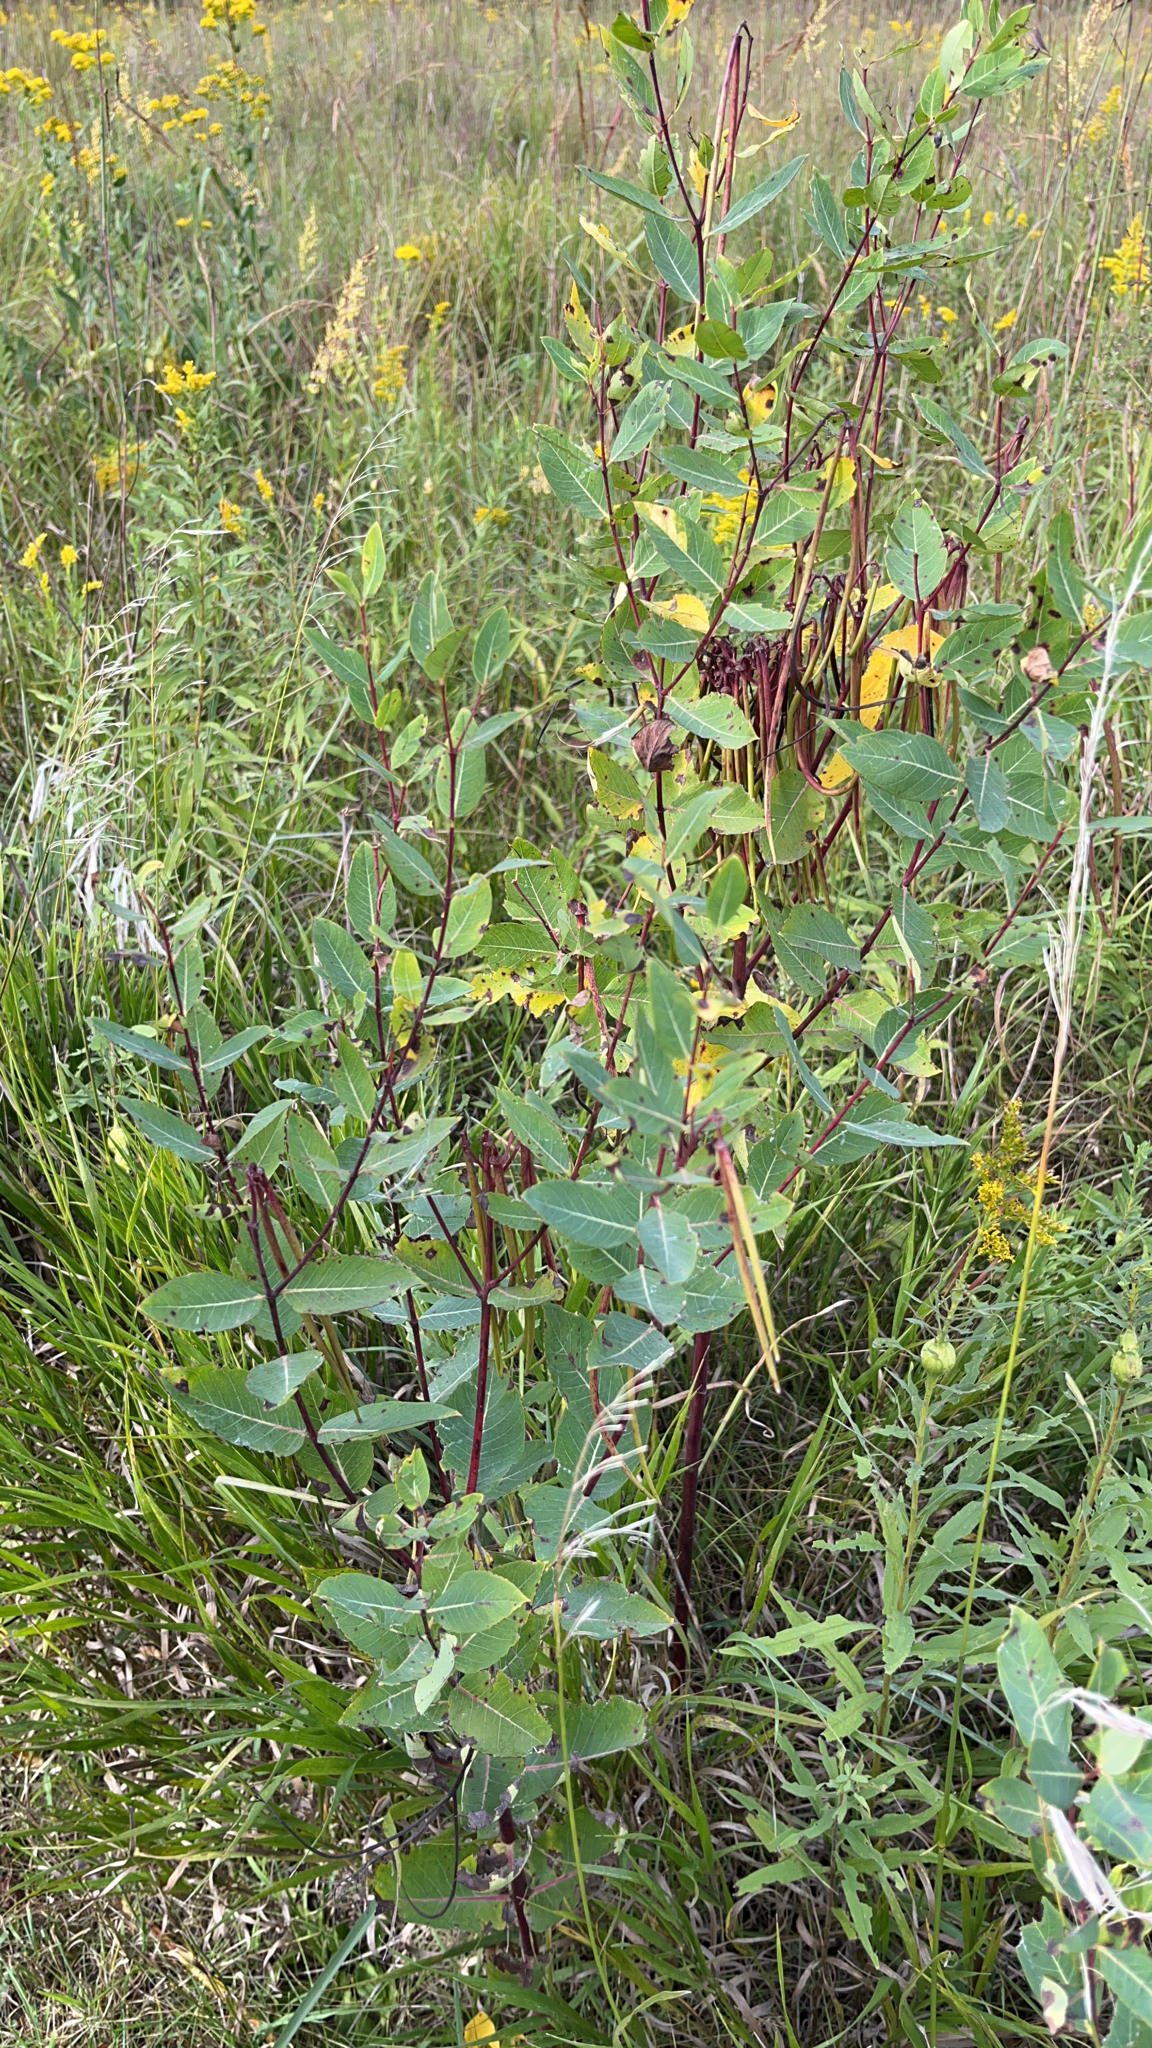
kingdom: Plantae
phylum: Tracheophyta
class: Magnoliopsida
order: Gentianales
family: Apocynaceae
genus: Apocynum
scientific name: Apocynum cannabinum
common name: Hemp dogbane
